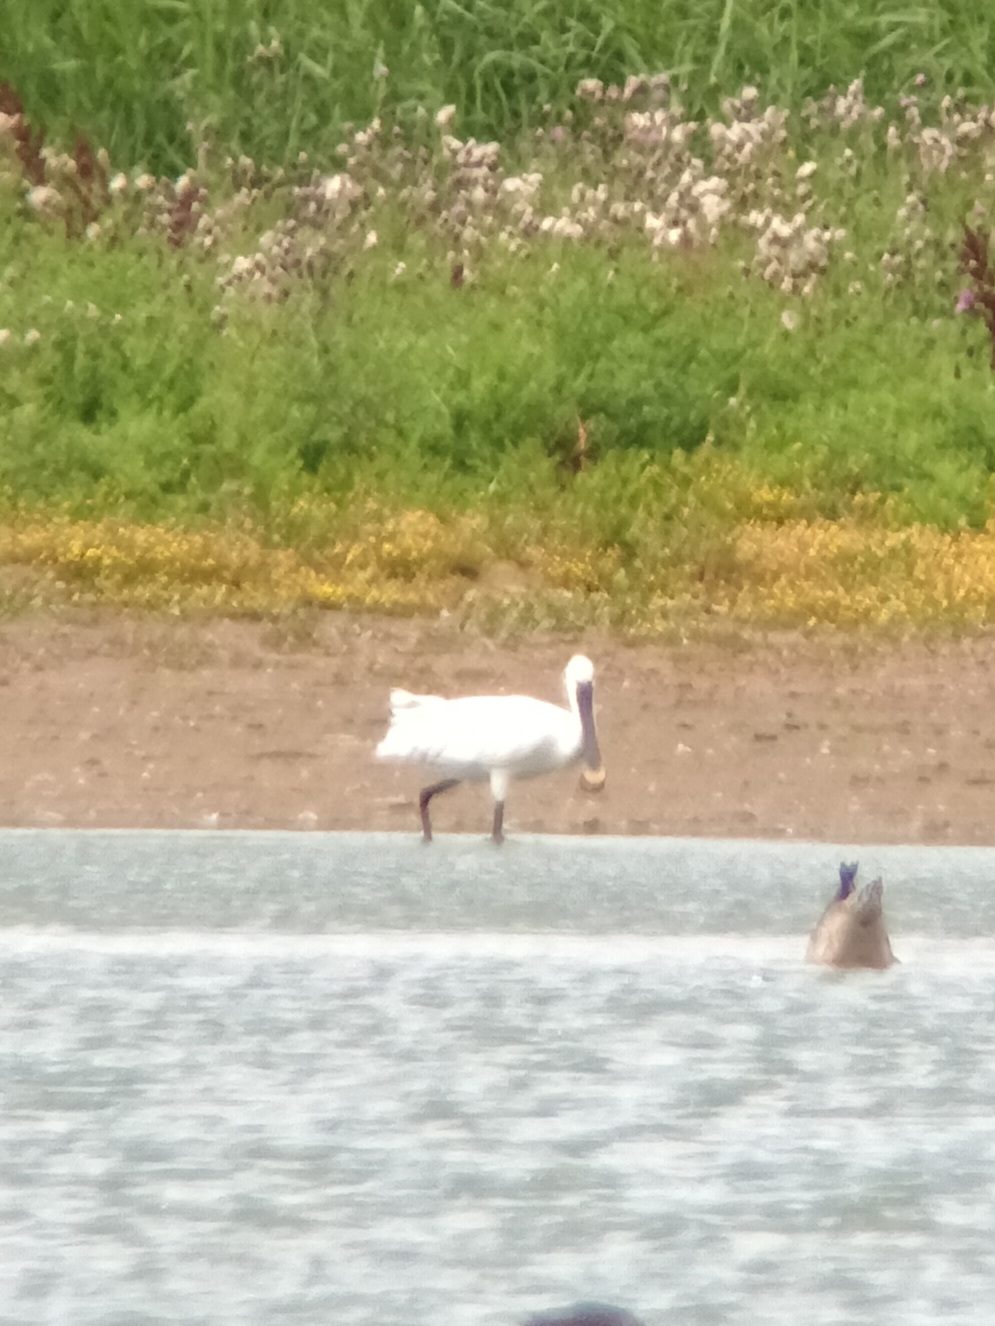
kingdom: Animalia
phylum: Chordata
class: Aves
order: Pelecaniformes
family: Threskiornithidae
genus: Platalea
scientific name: Platalea leucorodia
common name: Eurasian spoonbill
